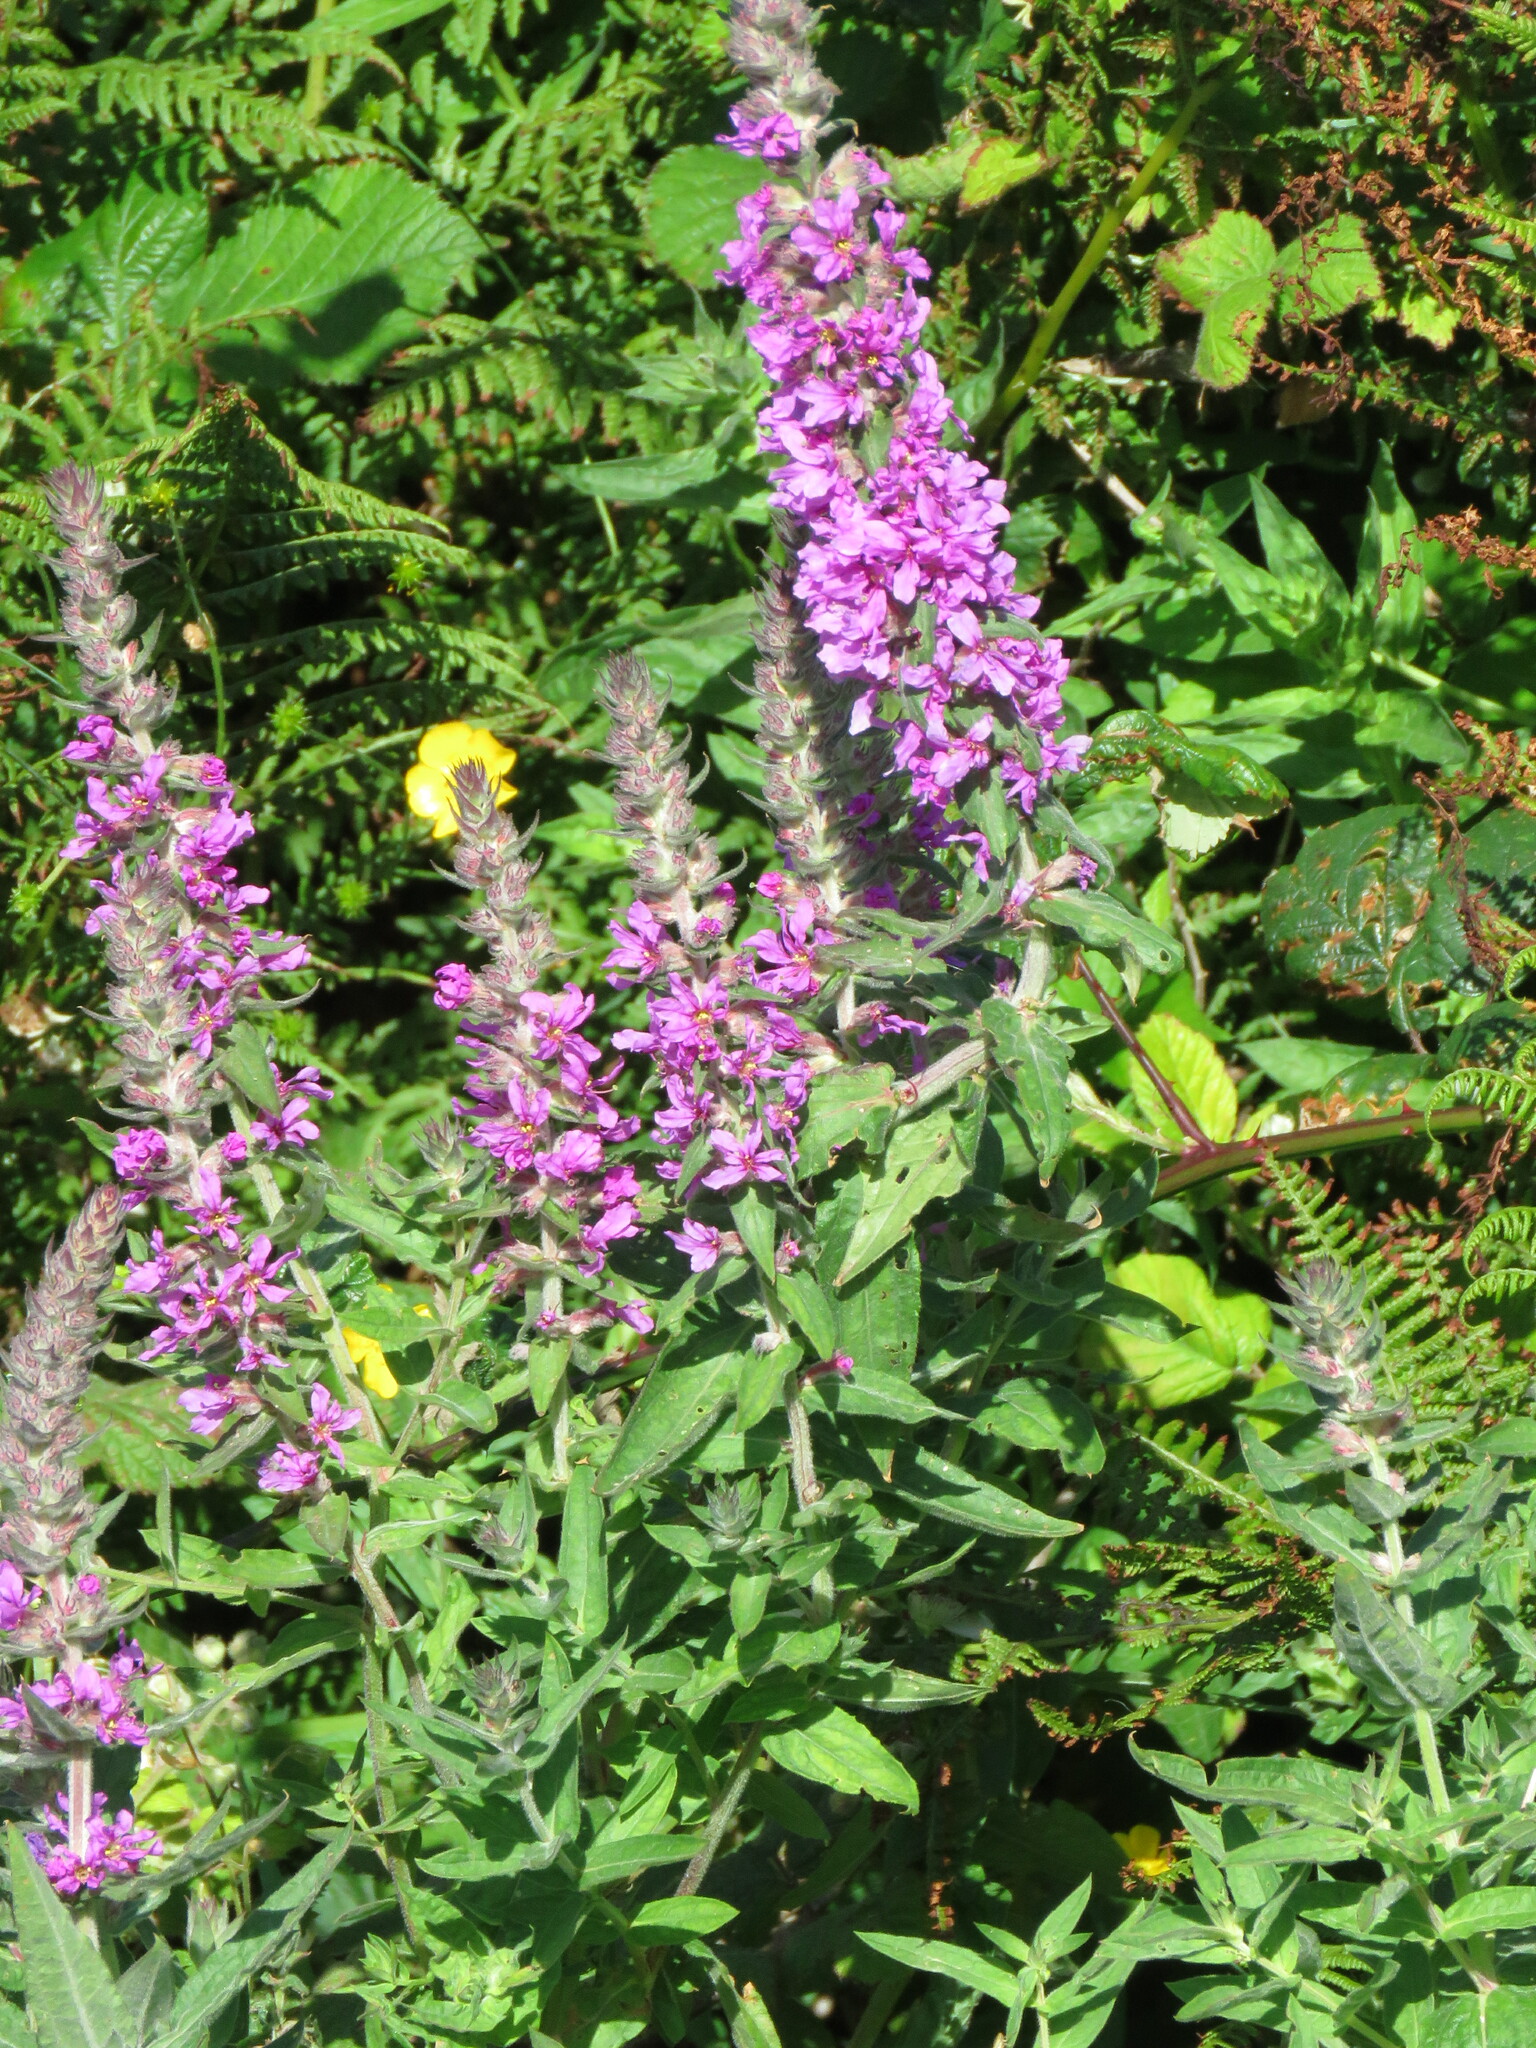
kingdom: Plantae
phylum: Tracheophyta
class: Magnoliopsida
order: Myrtales
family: Lythraceae
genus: Lythrum
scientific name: Lythrum salicaria
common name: Purple loosestrife
